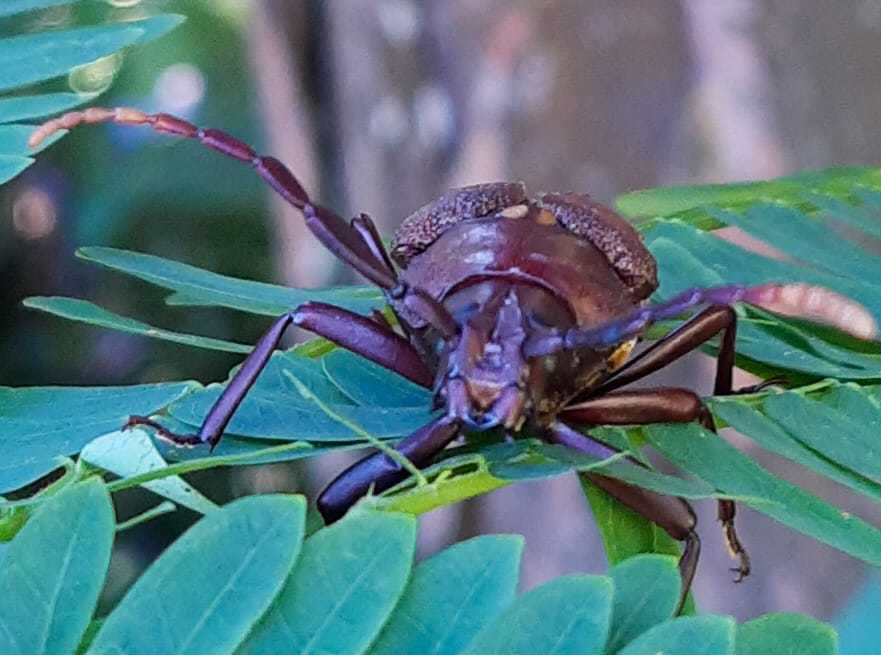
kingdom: Animalia
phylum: Arthropoda
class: Insecta
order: Coleoptera
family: Cerambycidae
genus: Praemallaspis
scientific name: Praemallaspis leucaspis
